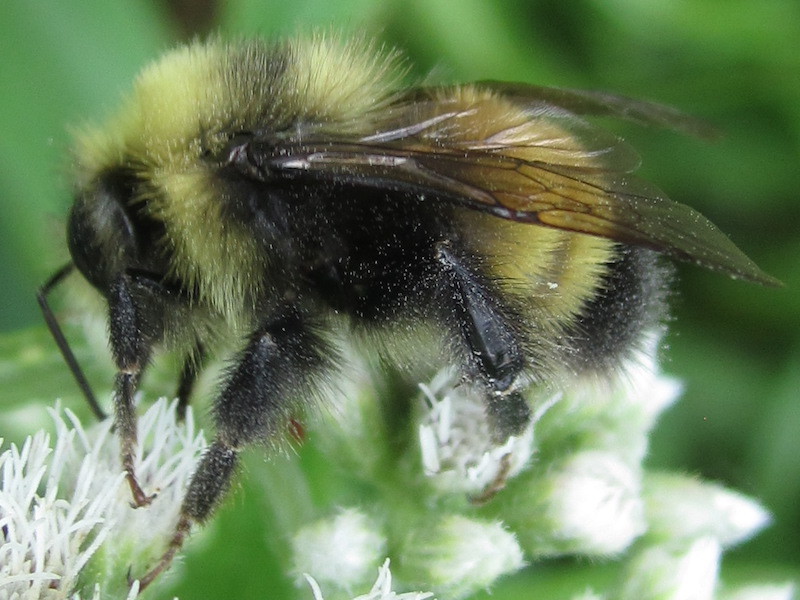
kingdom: Animalia
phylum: Arthropoda
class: Insecta
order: Hymenoptera
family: Apidae
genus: Bombus
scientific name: Bombus terricola
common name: Yellow-banded bumble bee
